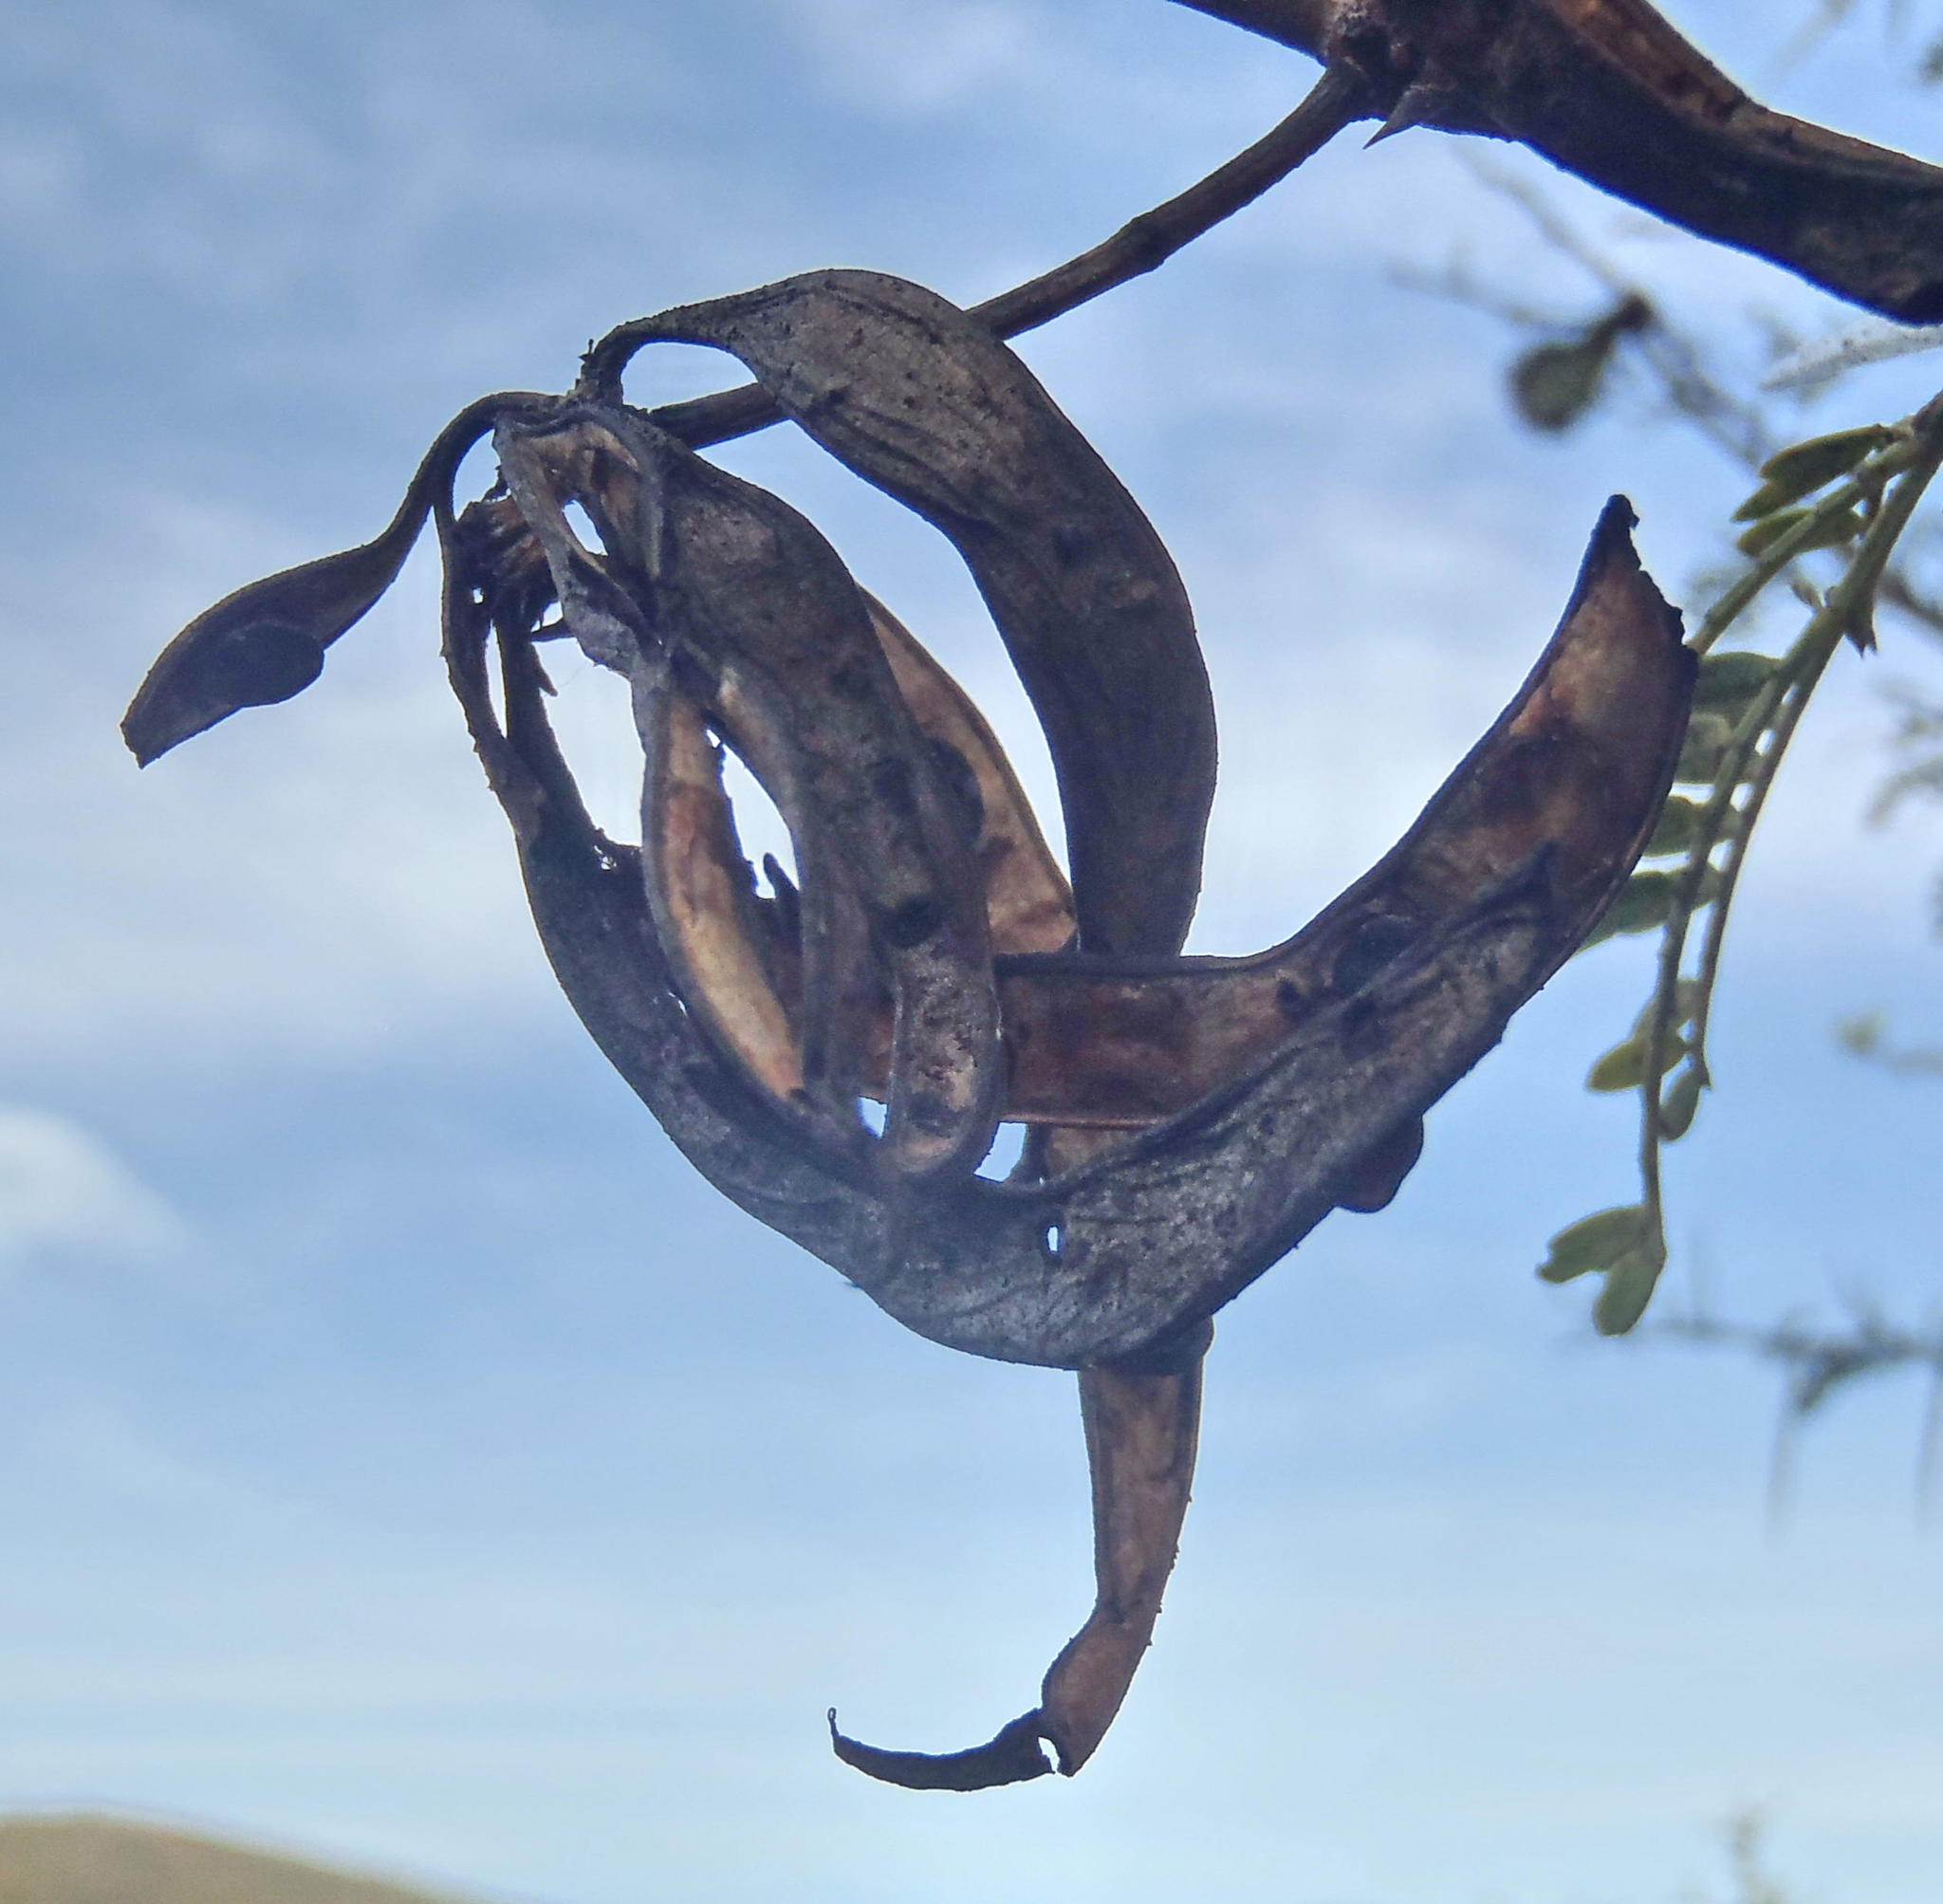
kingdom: Plantae
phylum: Tracheophyta
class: Magnoliopsida
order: Fabales
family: Fabaceae
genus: Vachellia
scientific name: Vachellia karroo
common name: Sweet thorn
